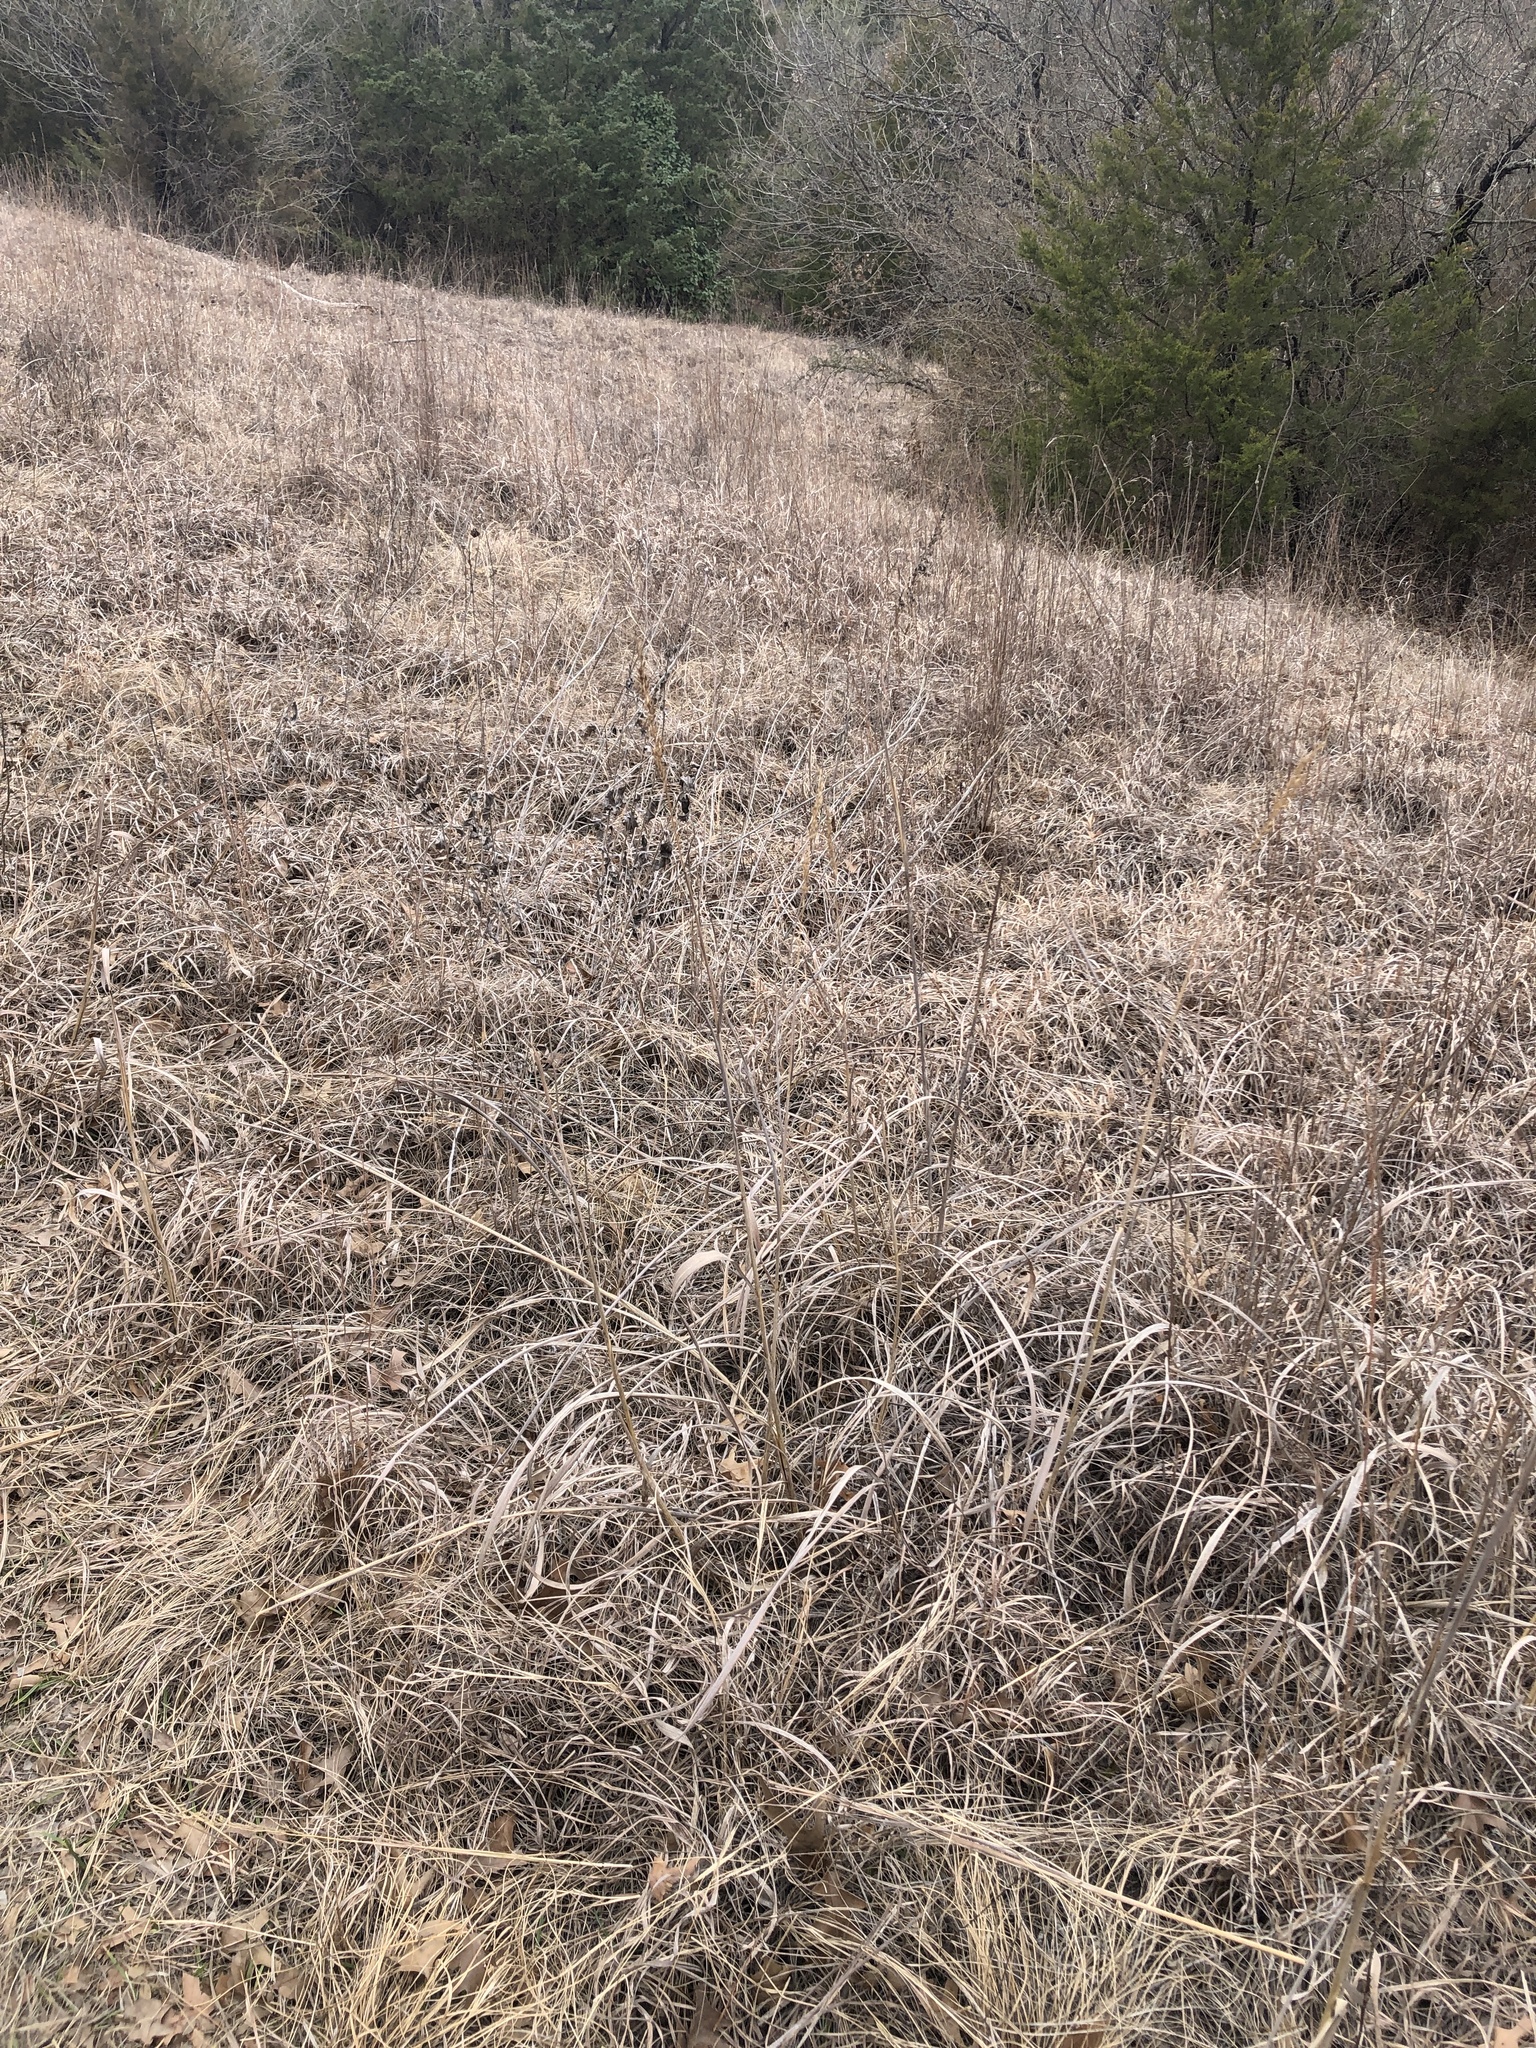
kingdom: Plantae
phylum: Tracheophyta
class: Liliopsida
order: Poales
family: Poaceae
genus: Sorghastrum
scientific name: Sorghastrum nutans
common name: Indian grass
